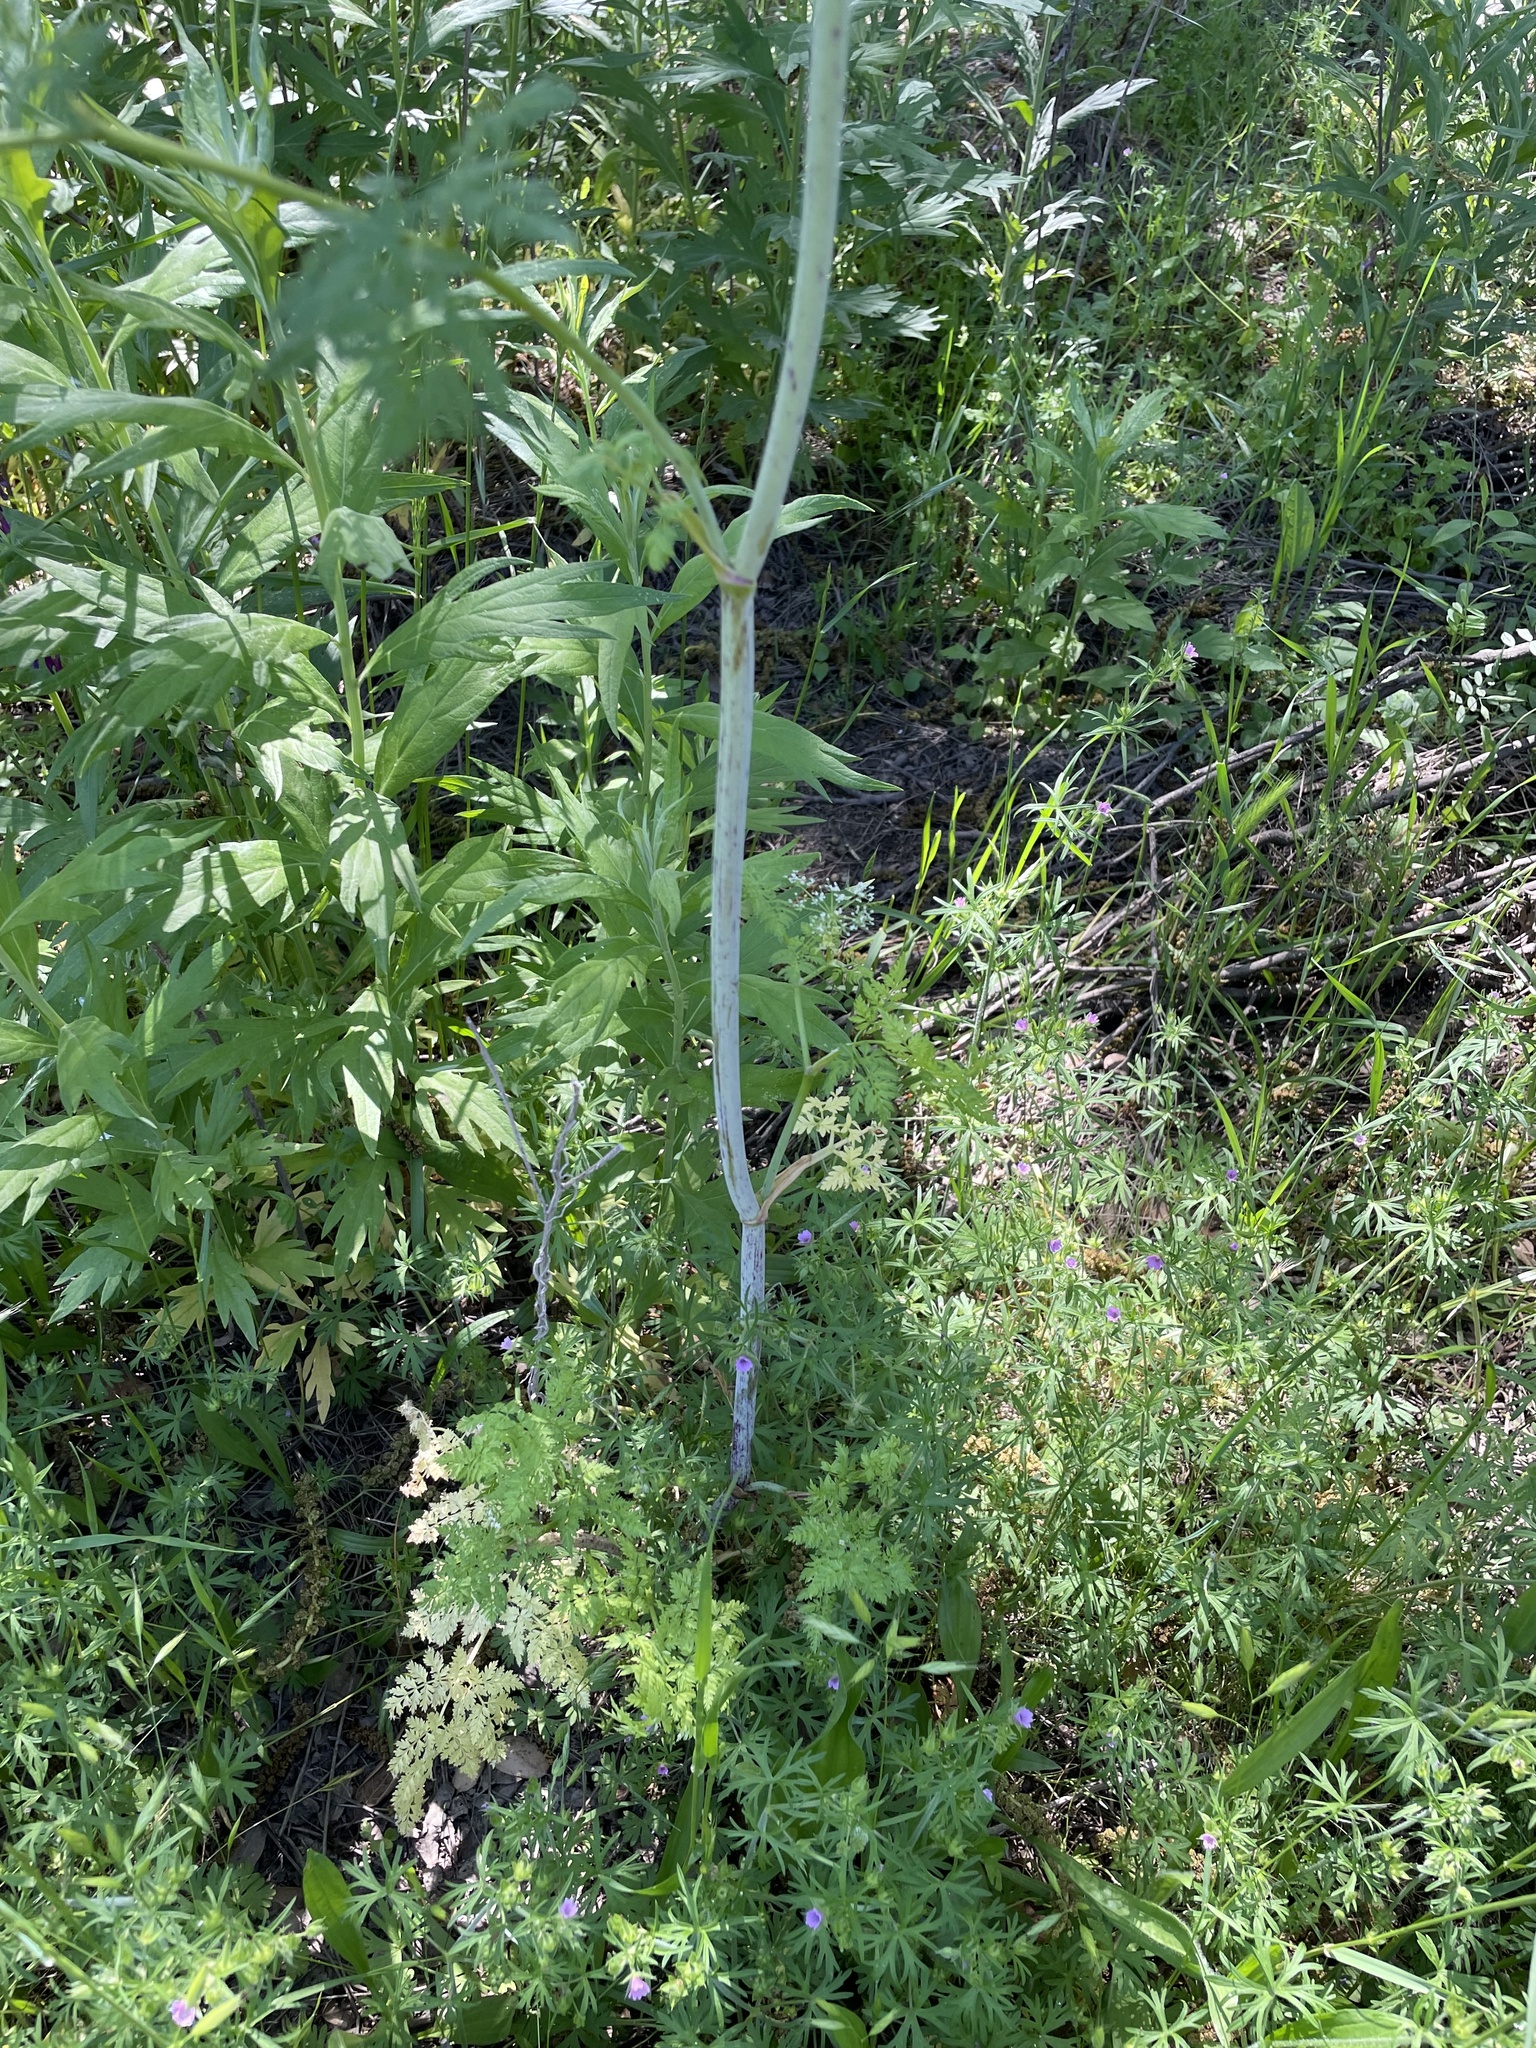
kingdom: Plantae
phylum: Tracheophyta
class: Magnoliopsida
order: Apiales
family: Apiaceae
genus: Conium
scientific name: Conium maculatum
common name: Hemlock
